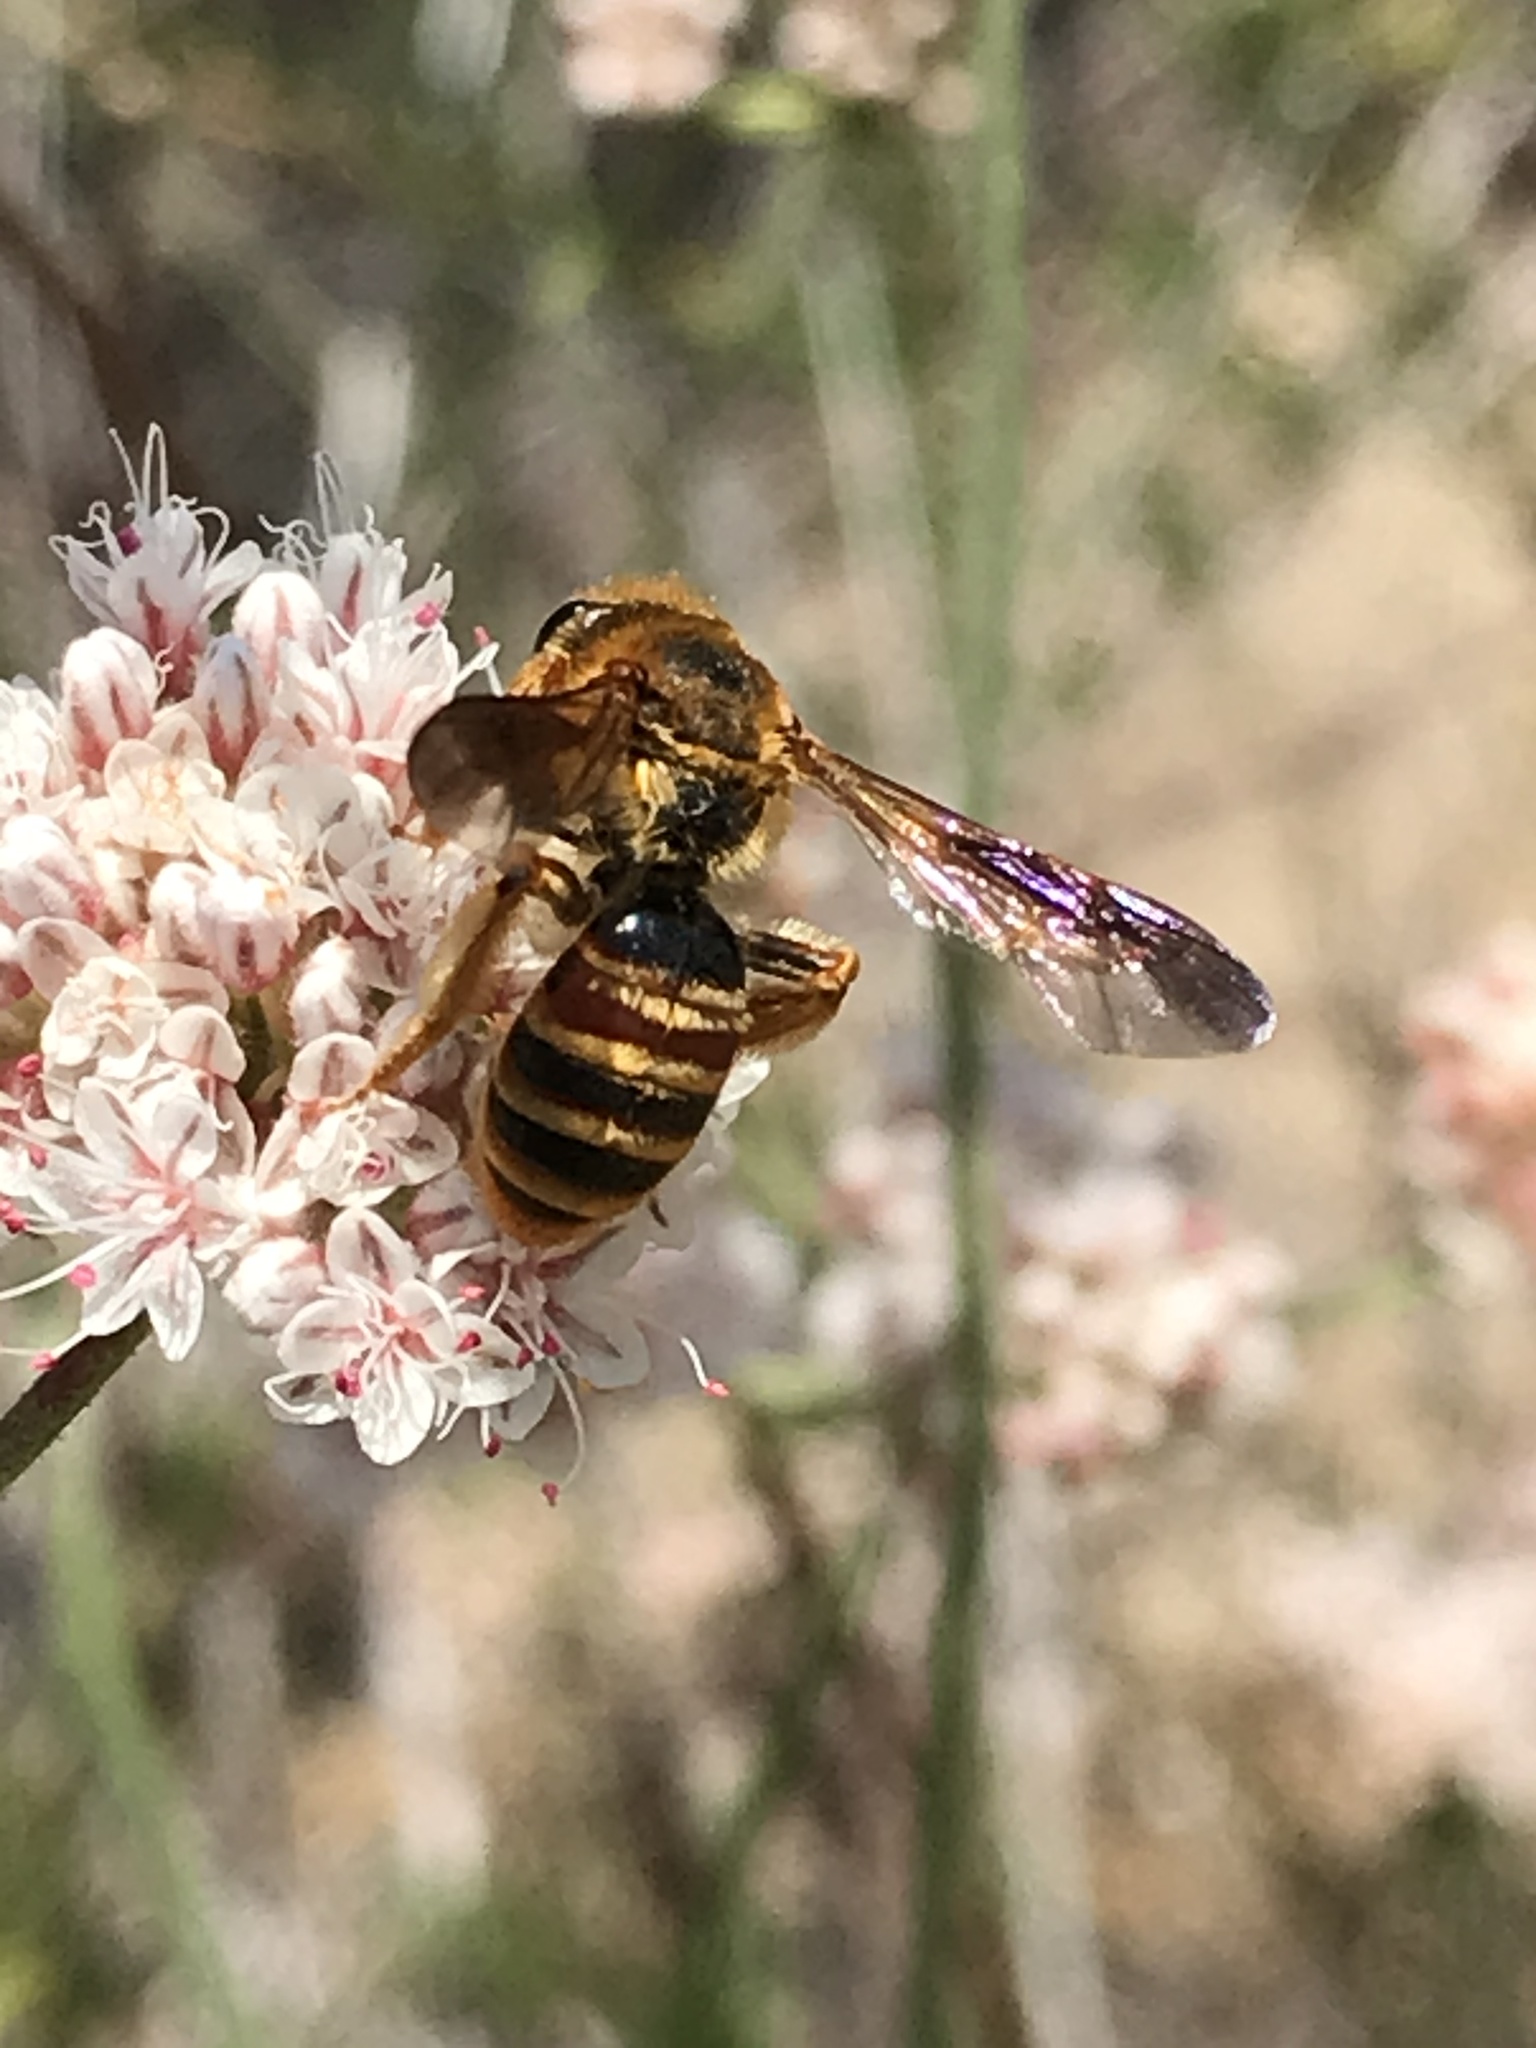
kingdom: Animalia
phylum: Arthropoda
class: Insecta
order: Hymenoptera
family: Andrenidae
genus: Andrena
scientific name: Andrena prunorum
